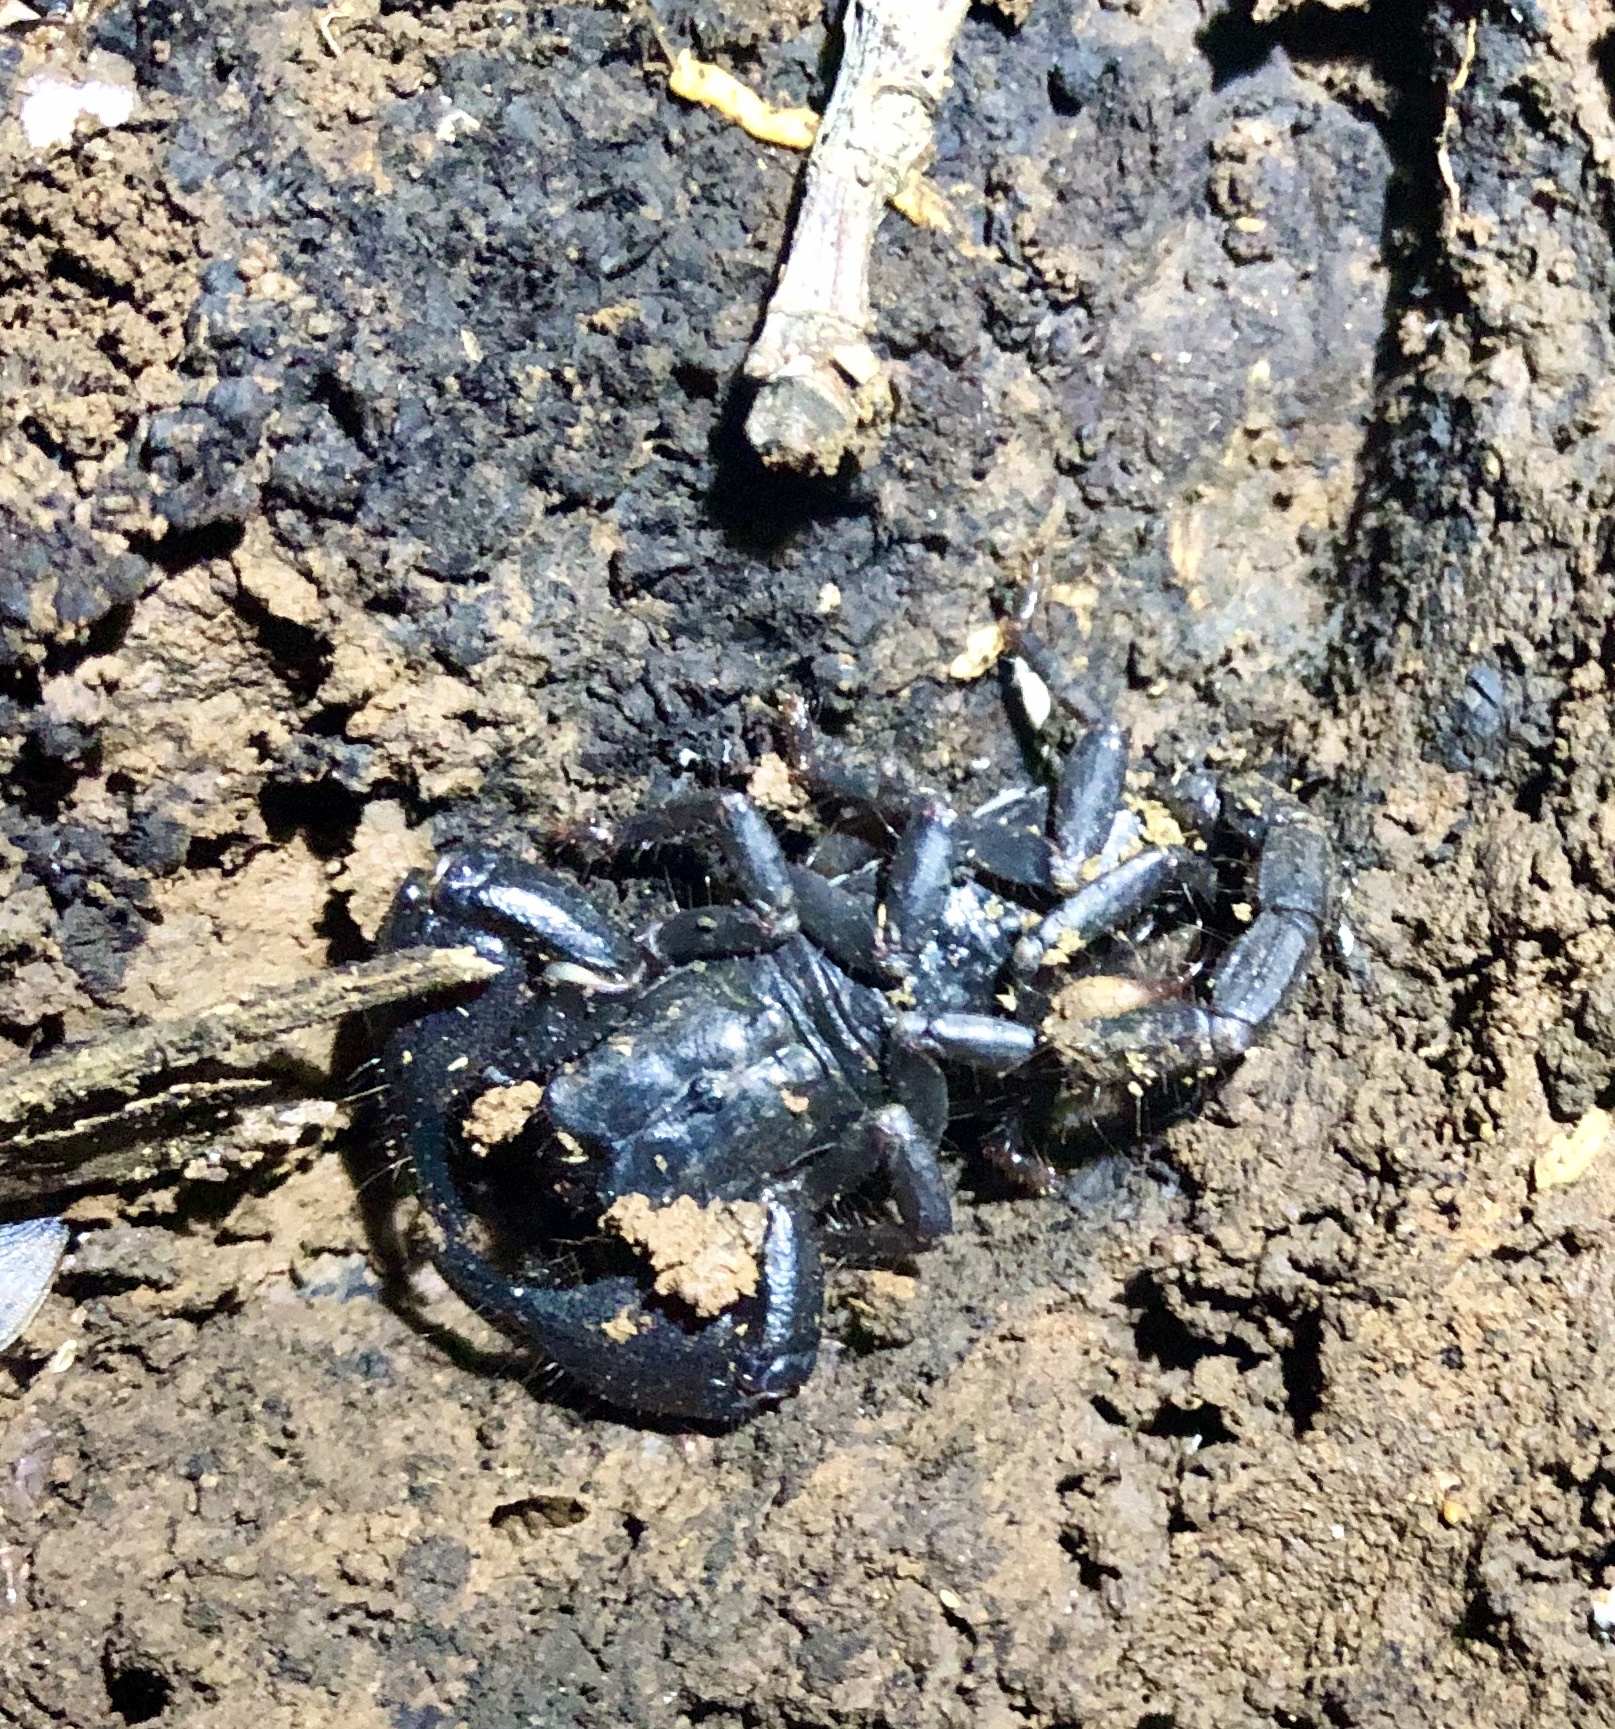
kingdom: Animalia
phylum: Arthropoda
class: Arachnida
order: Scorpiones
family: Scorpionidae
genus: Javanimetrus
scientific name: Javanimetrus cyaneus
